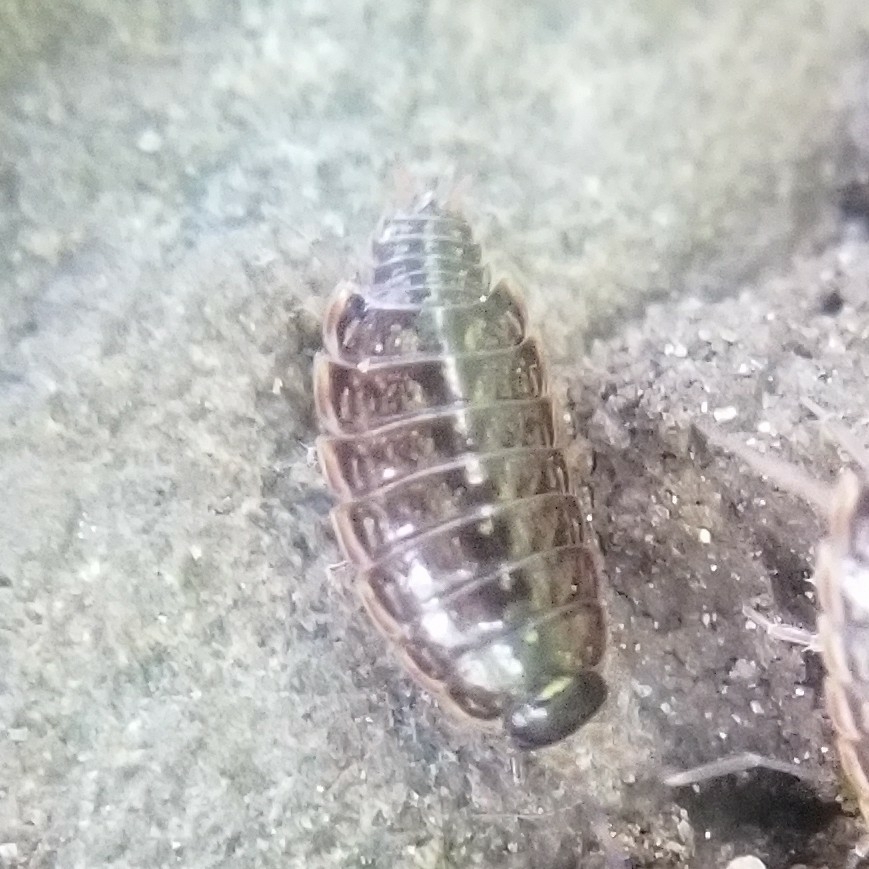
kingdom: Animalia
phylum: Arthropoda
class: Malacostraca
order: Isopoda
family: Philosciidae
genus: Philoscia
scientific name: Philoscia muscorum
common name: Common striped woodlouse
